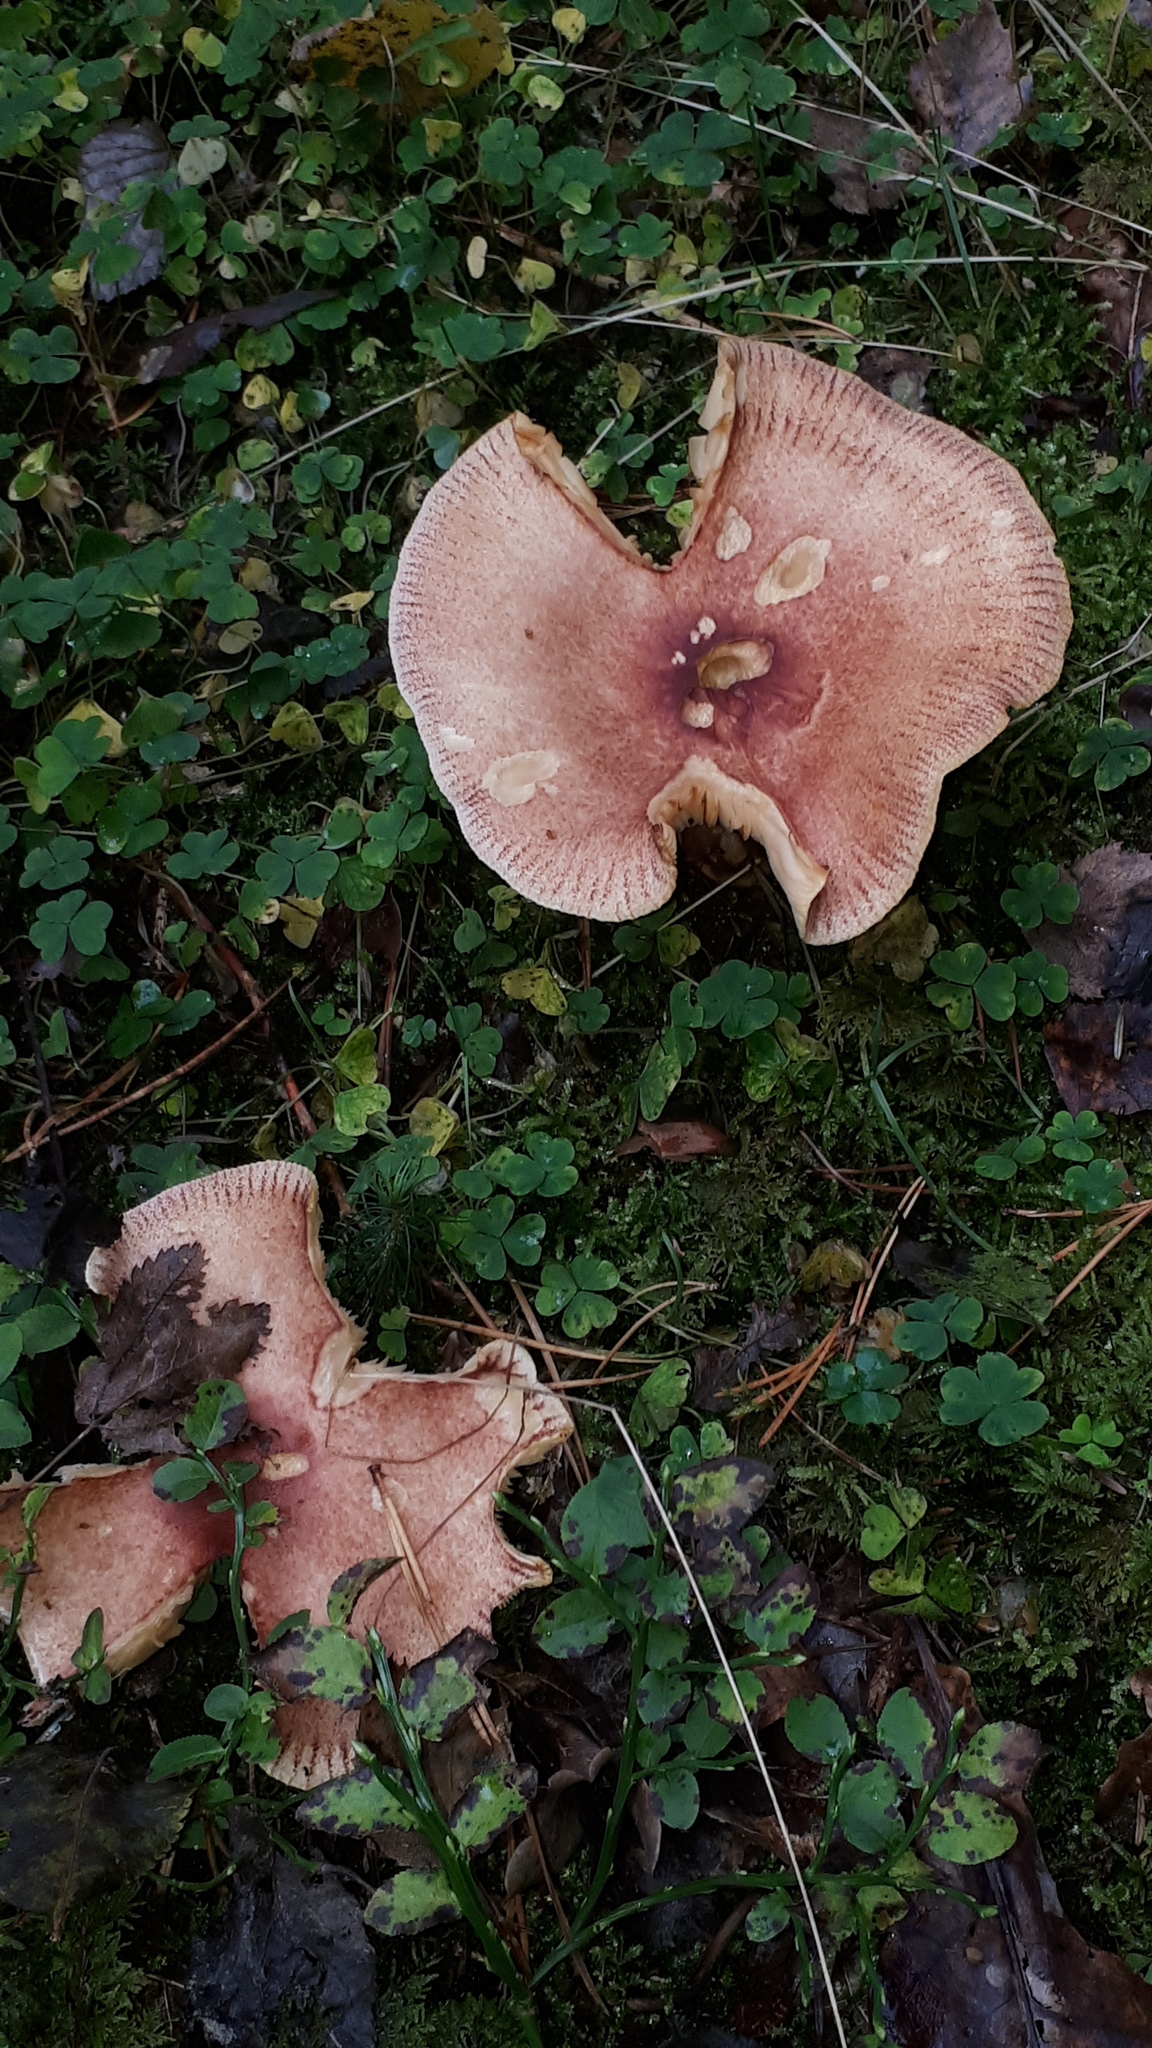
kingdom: Fungi
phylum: Basidiomycota
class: Agaricomycetes
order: Agaricales
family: Tricholomataceae
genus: Tricholomopsis
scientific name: Tricholomopsis rutilans
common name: Plums and custard
